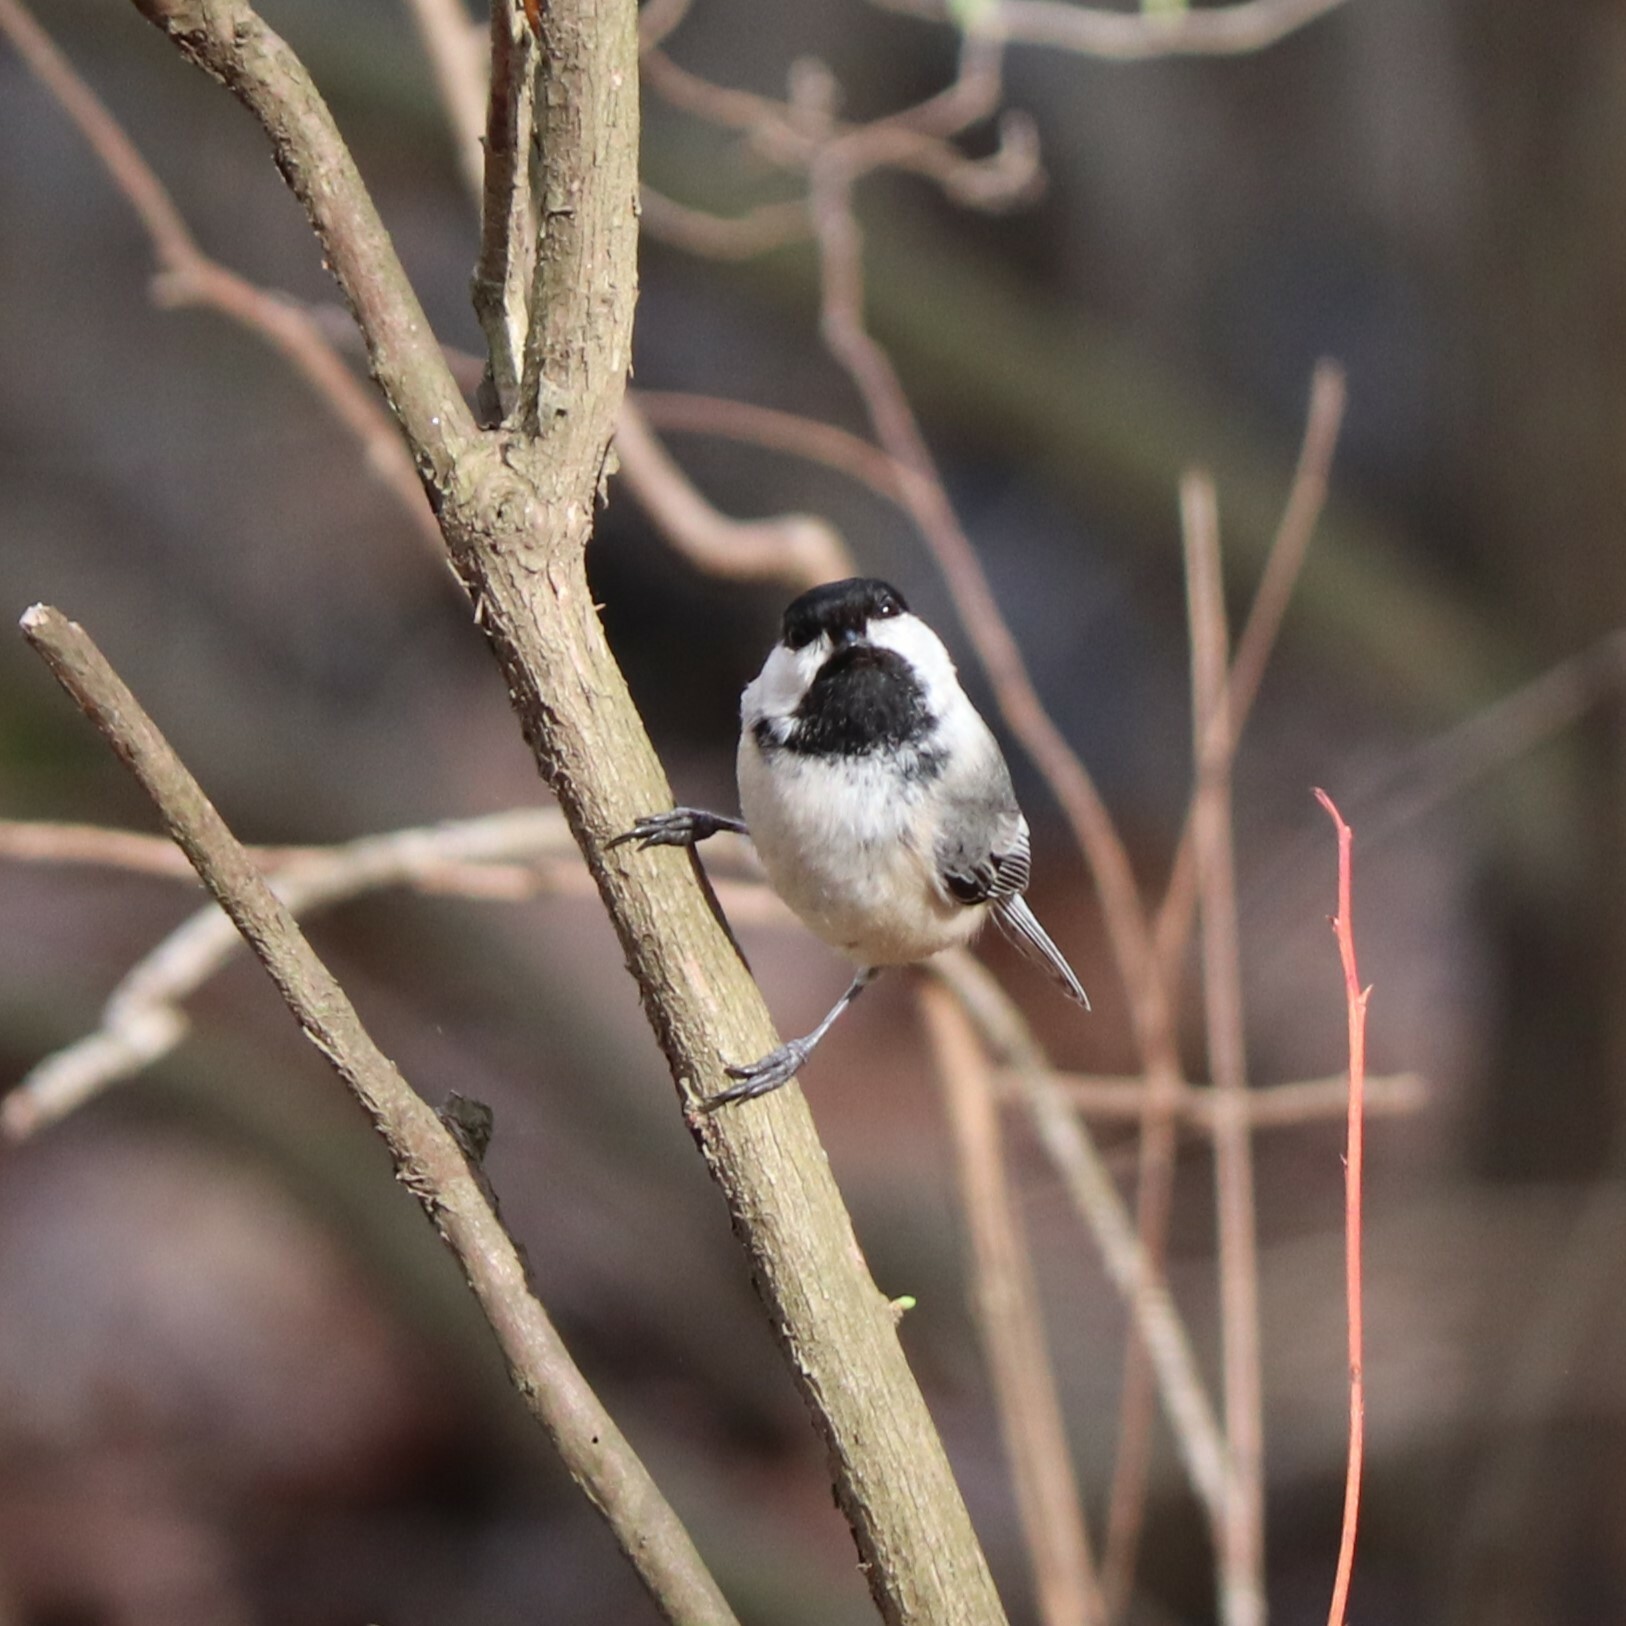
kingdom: Animalia
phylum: Chordata
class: Aves
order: Passeriformes
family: Paridae
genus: Poecile
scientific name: Poecile atricapillus
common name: Black-capped chickadee
